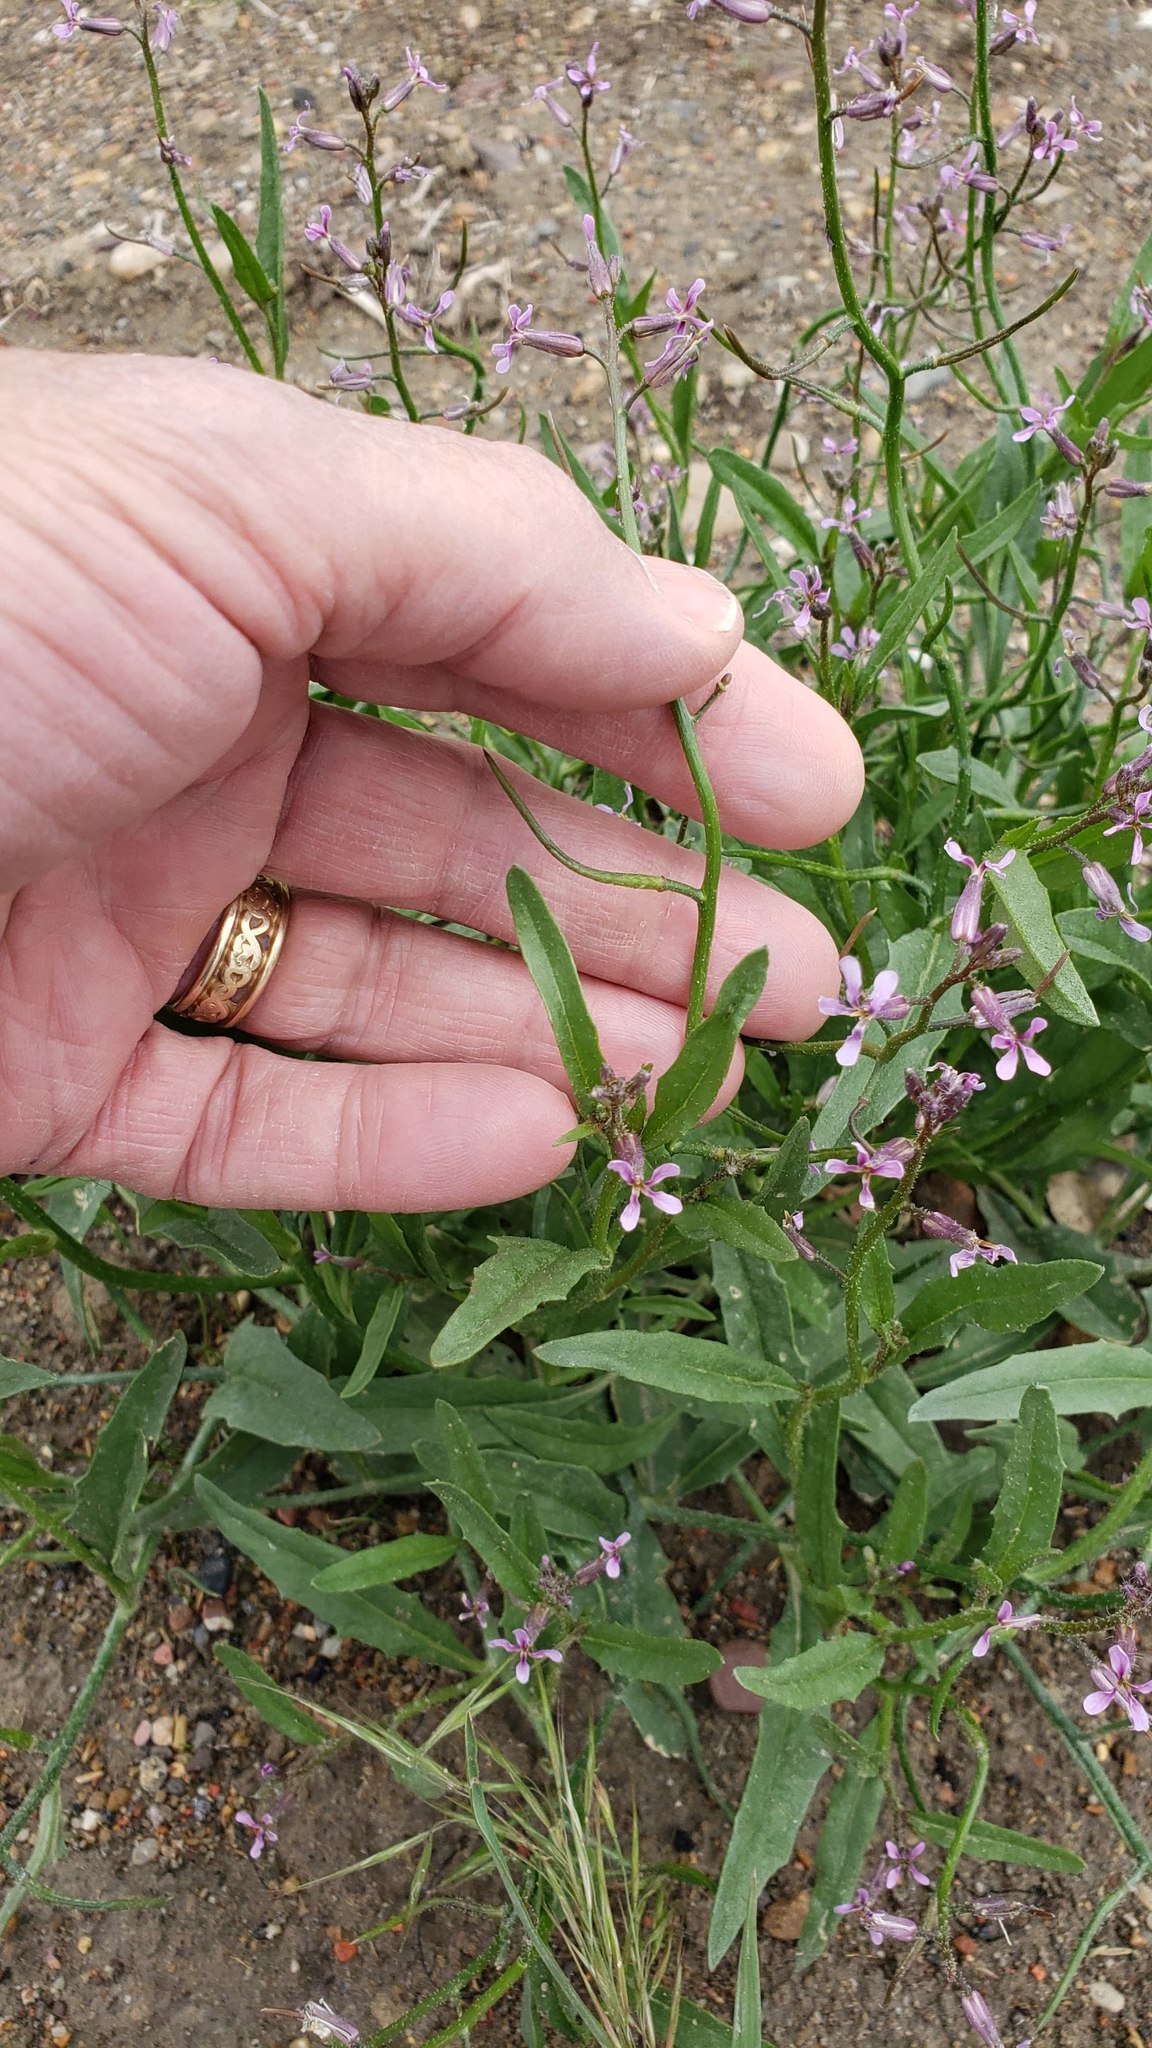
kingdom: Plantae
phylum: Tracheophyta
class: Magnoliopsida
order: Brassicales
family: Brassicaceae
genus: Chorispora
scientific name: Chorispora tenella
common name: Crossflower
